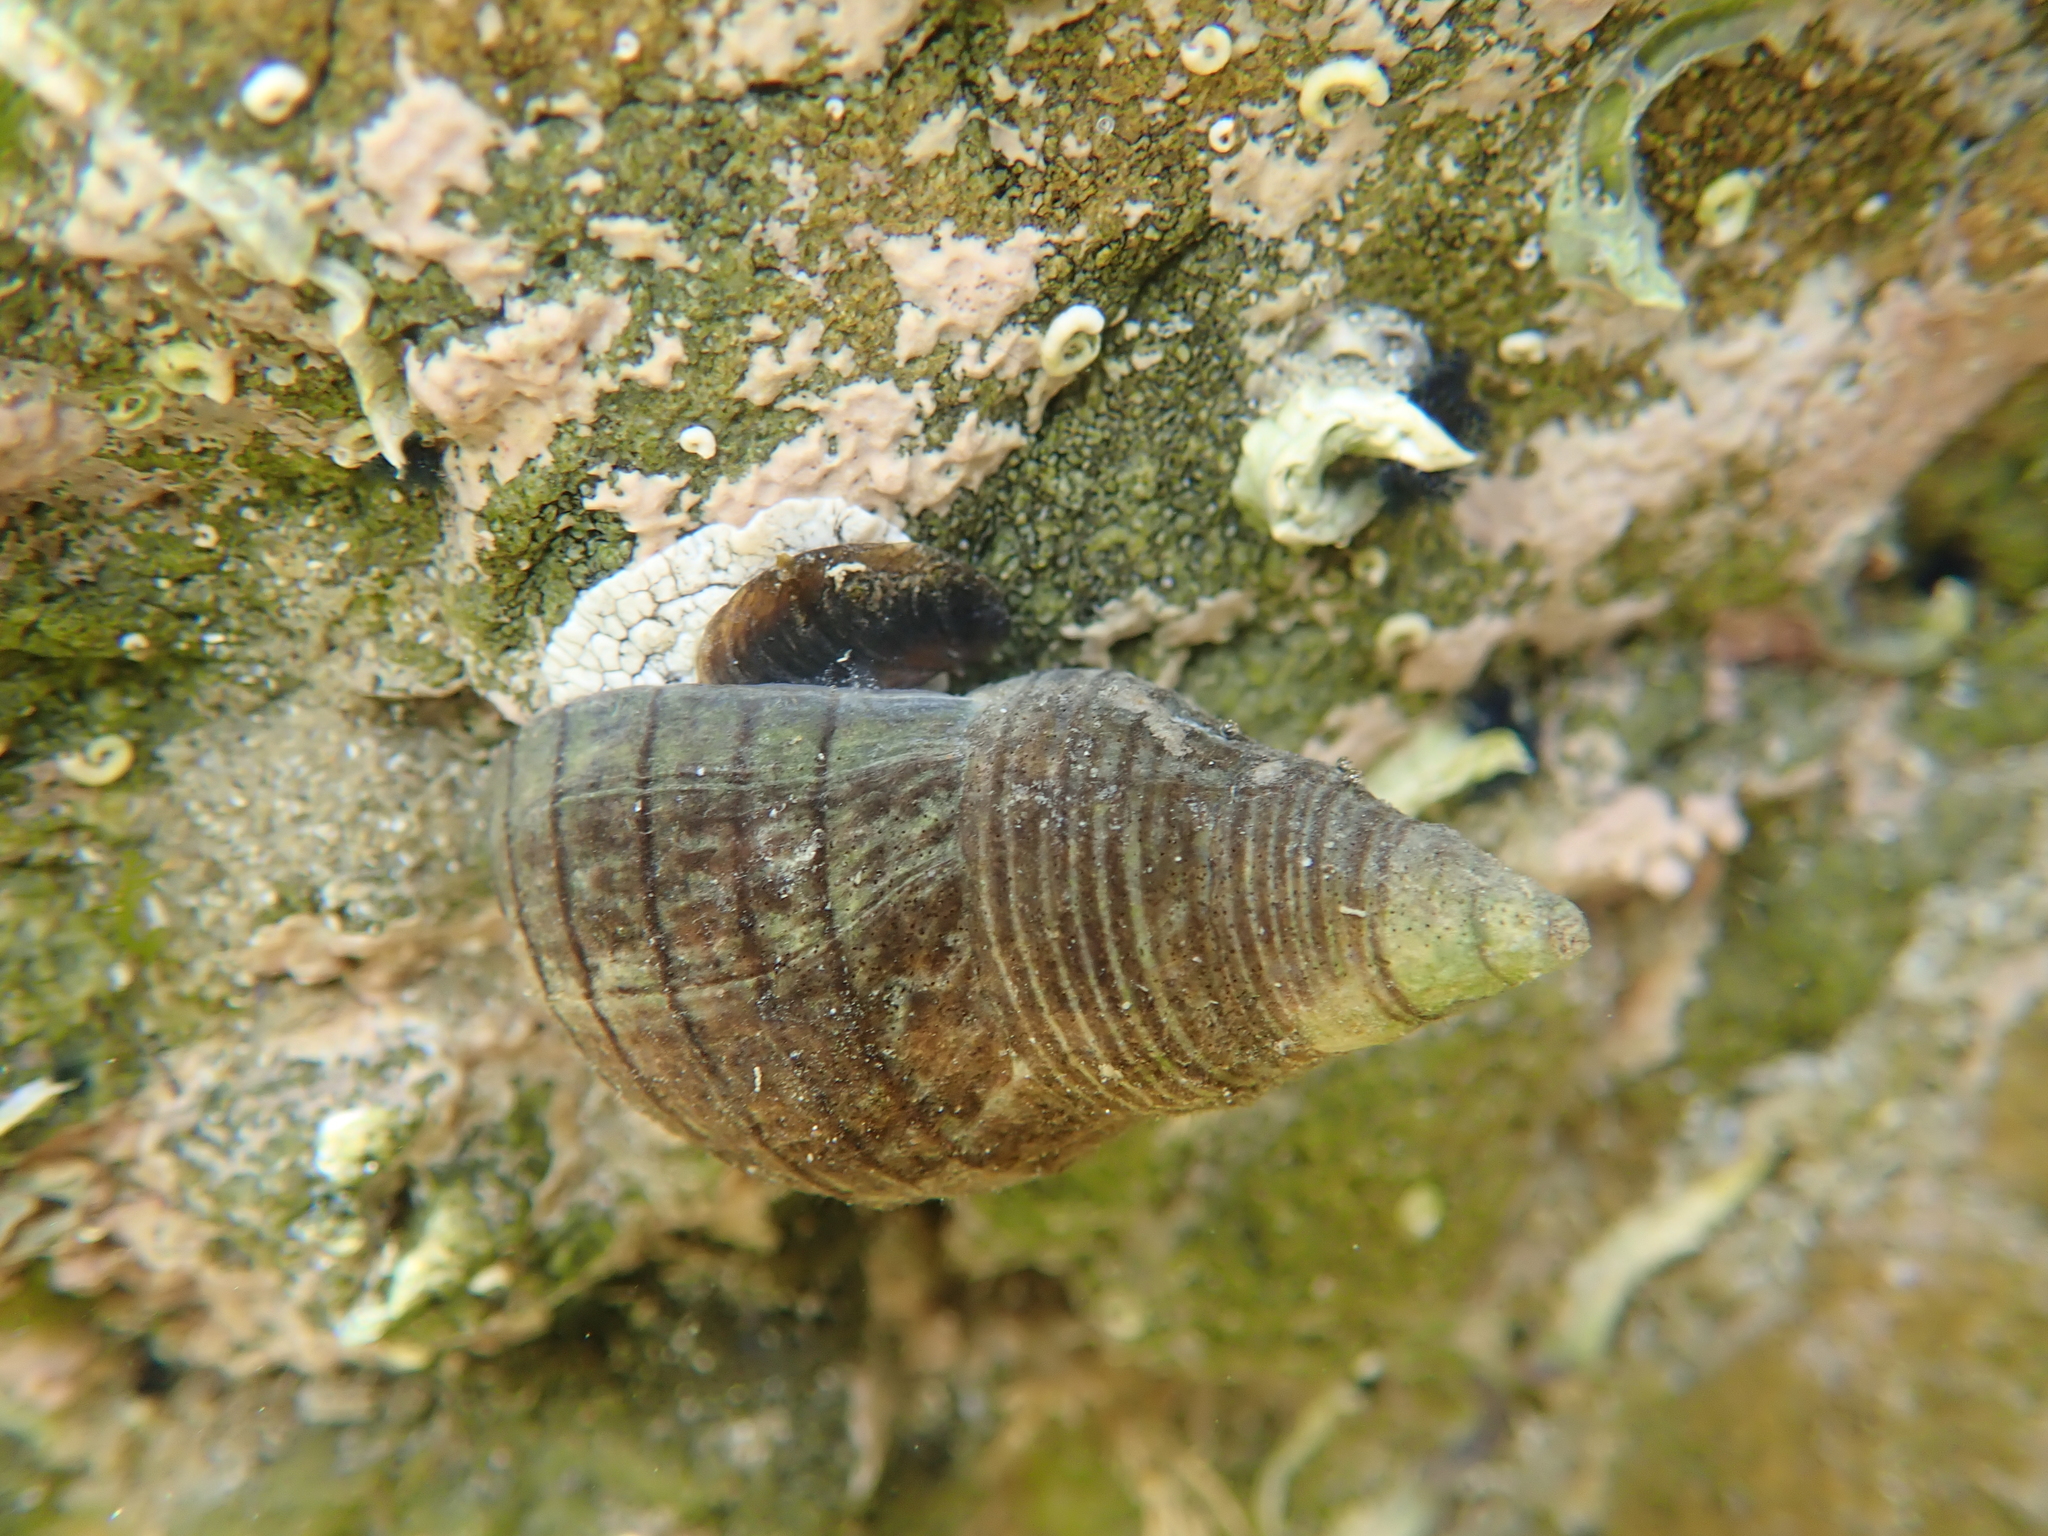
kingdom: Animalia
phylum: Mollusca
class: Gastropoda
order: Neogastropoda
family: Cominellidae
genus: Cominella
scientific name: Cominella virgata
